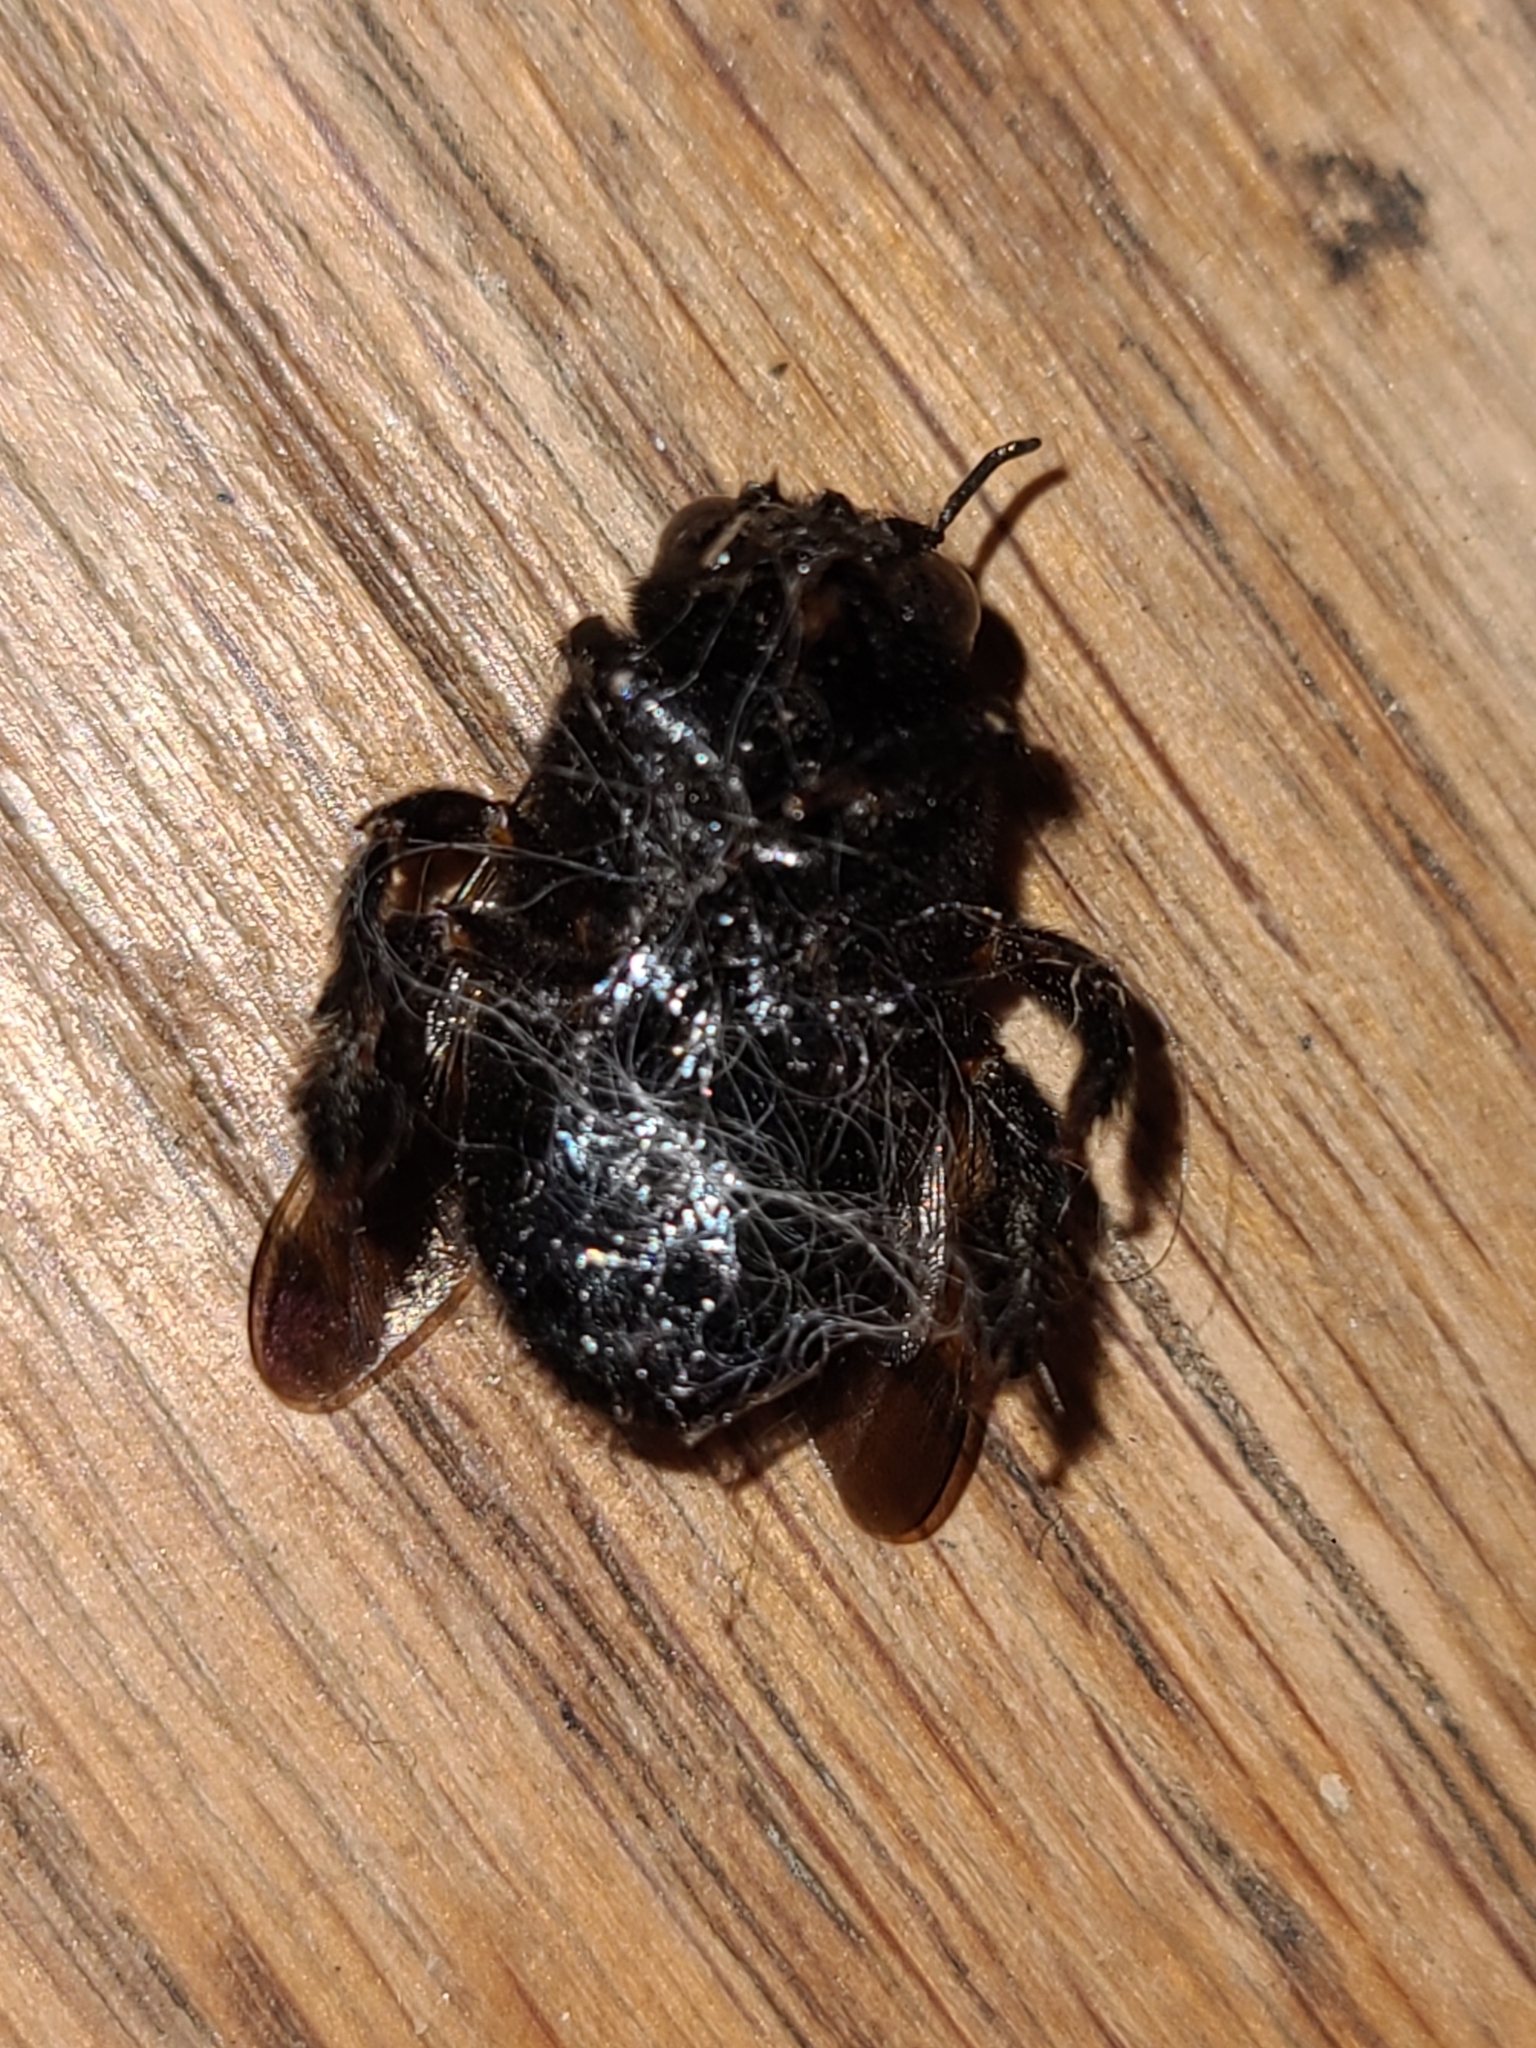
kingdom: Animalia
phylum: Arthropoda
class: Insecta
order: Hymenoptera
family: Apidae
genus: Xylocopa
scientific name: Xylocopa tabaniformis
